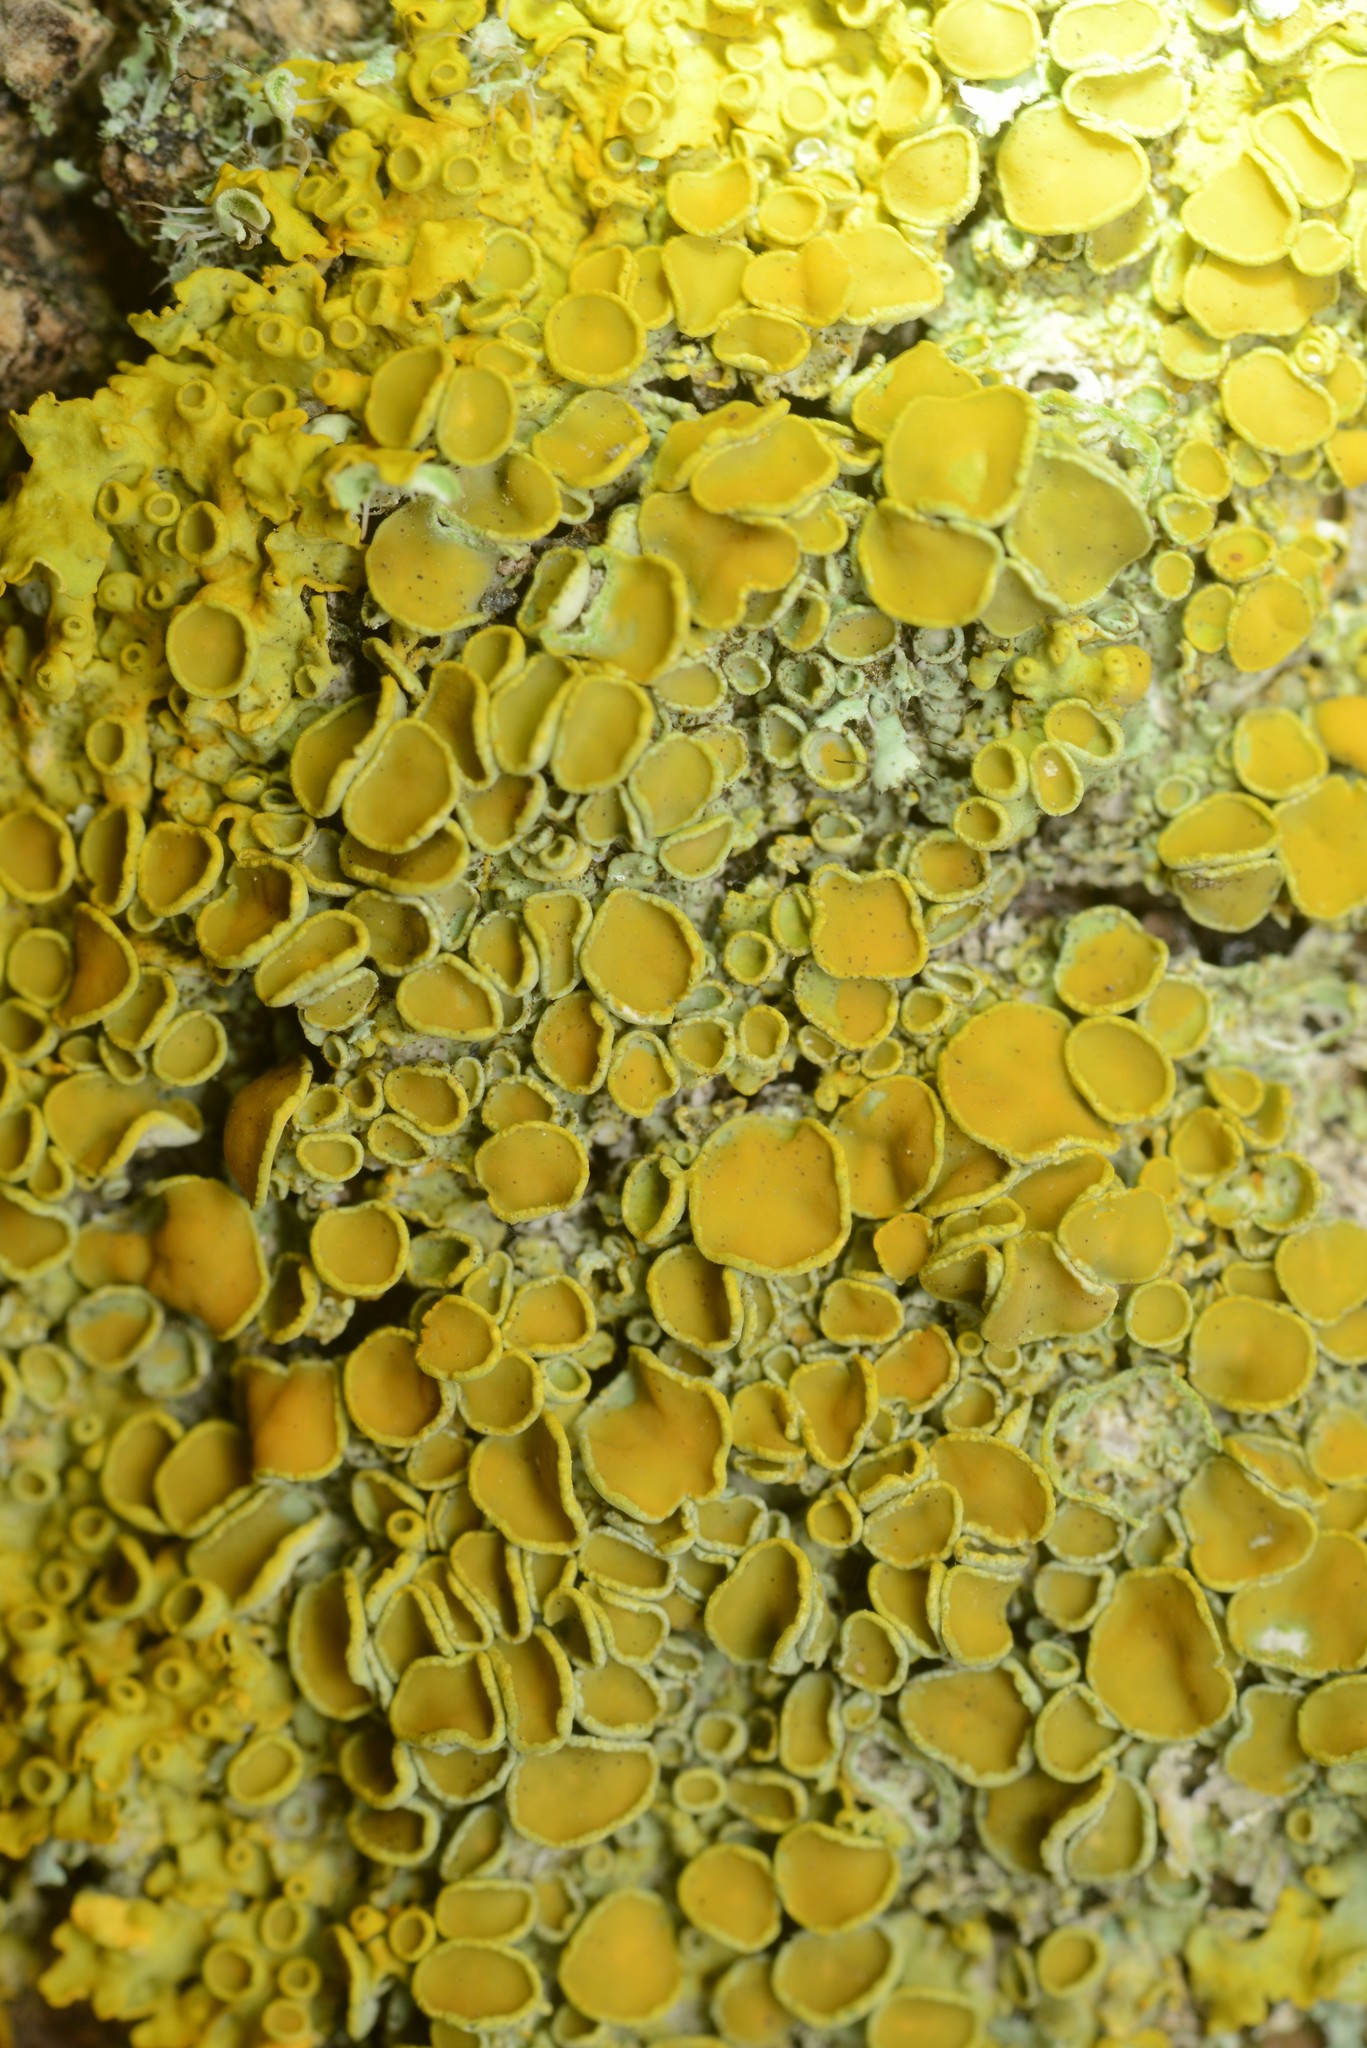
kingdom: Fungi
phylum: Ascomycota
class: Lecanoromycetes
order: Teloschistales
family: Teloschistaceae
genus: Xanthoria
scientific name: Xanthoria parietina
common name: Common orange lichen
